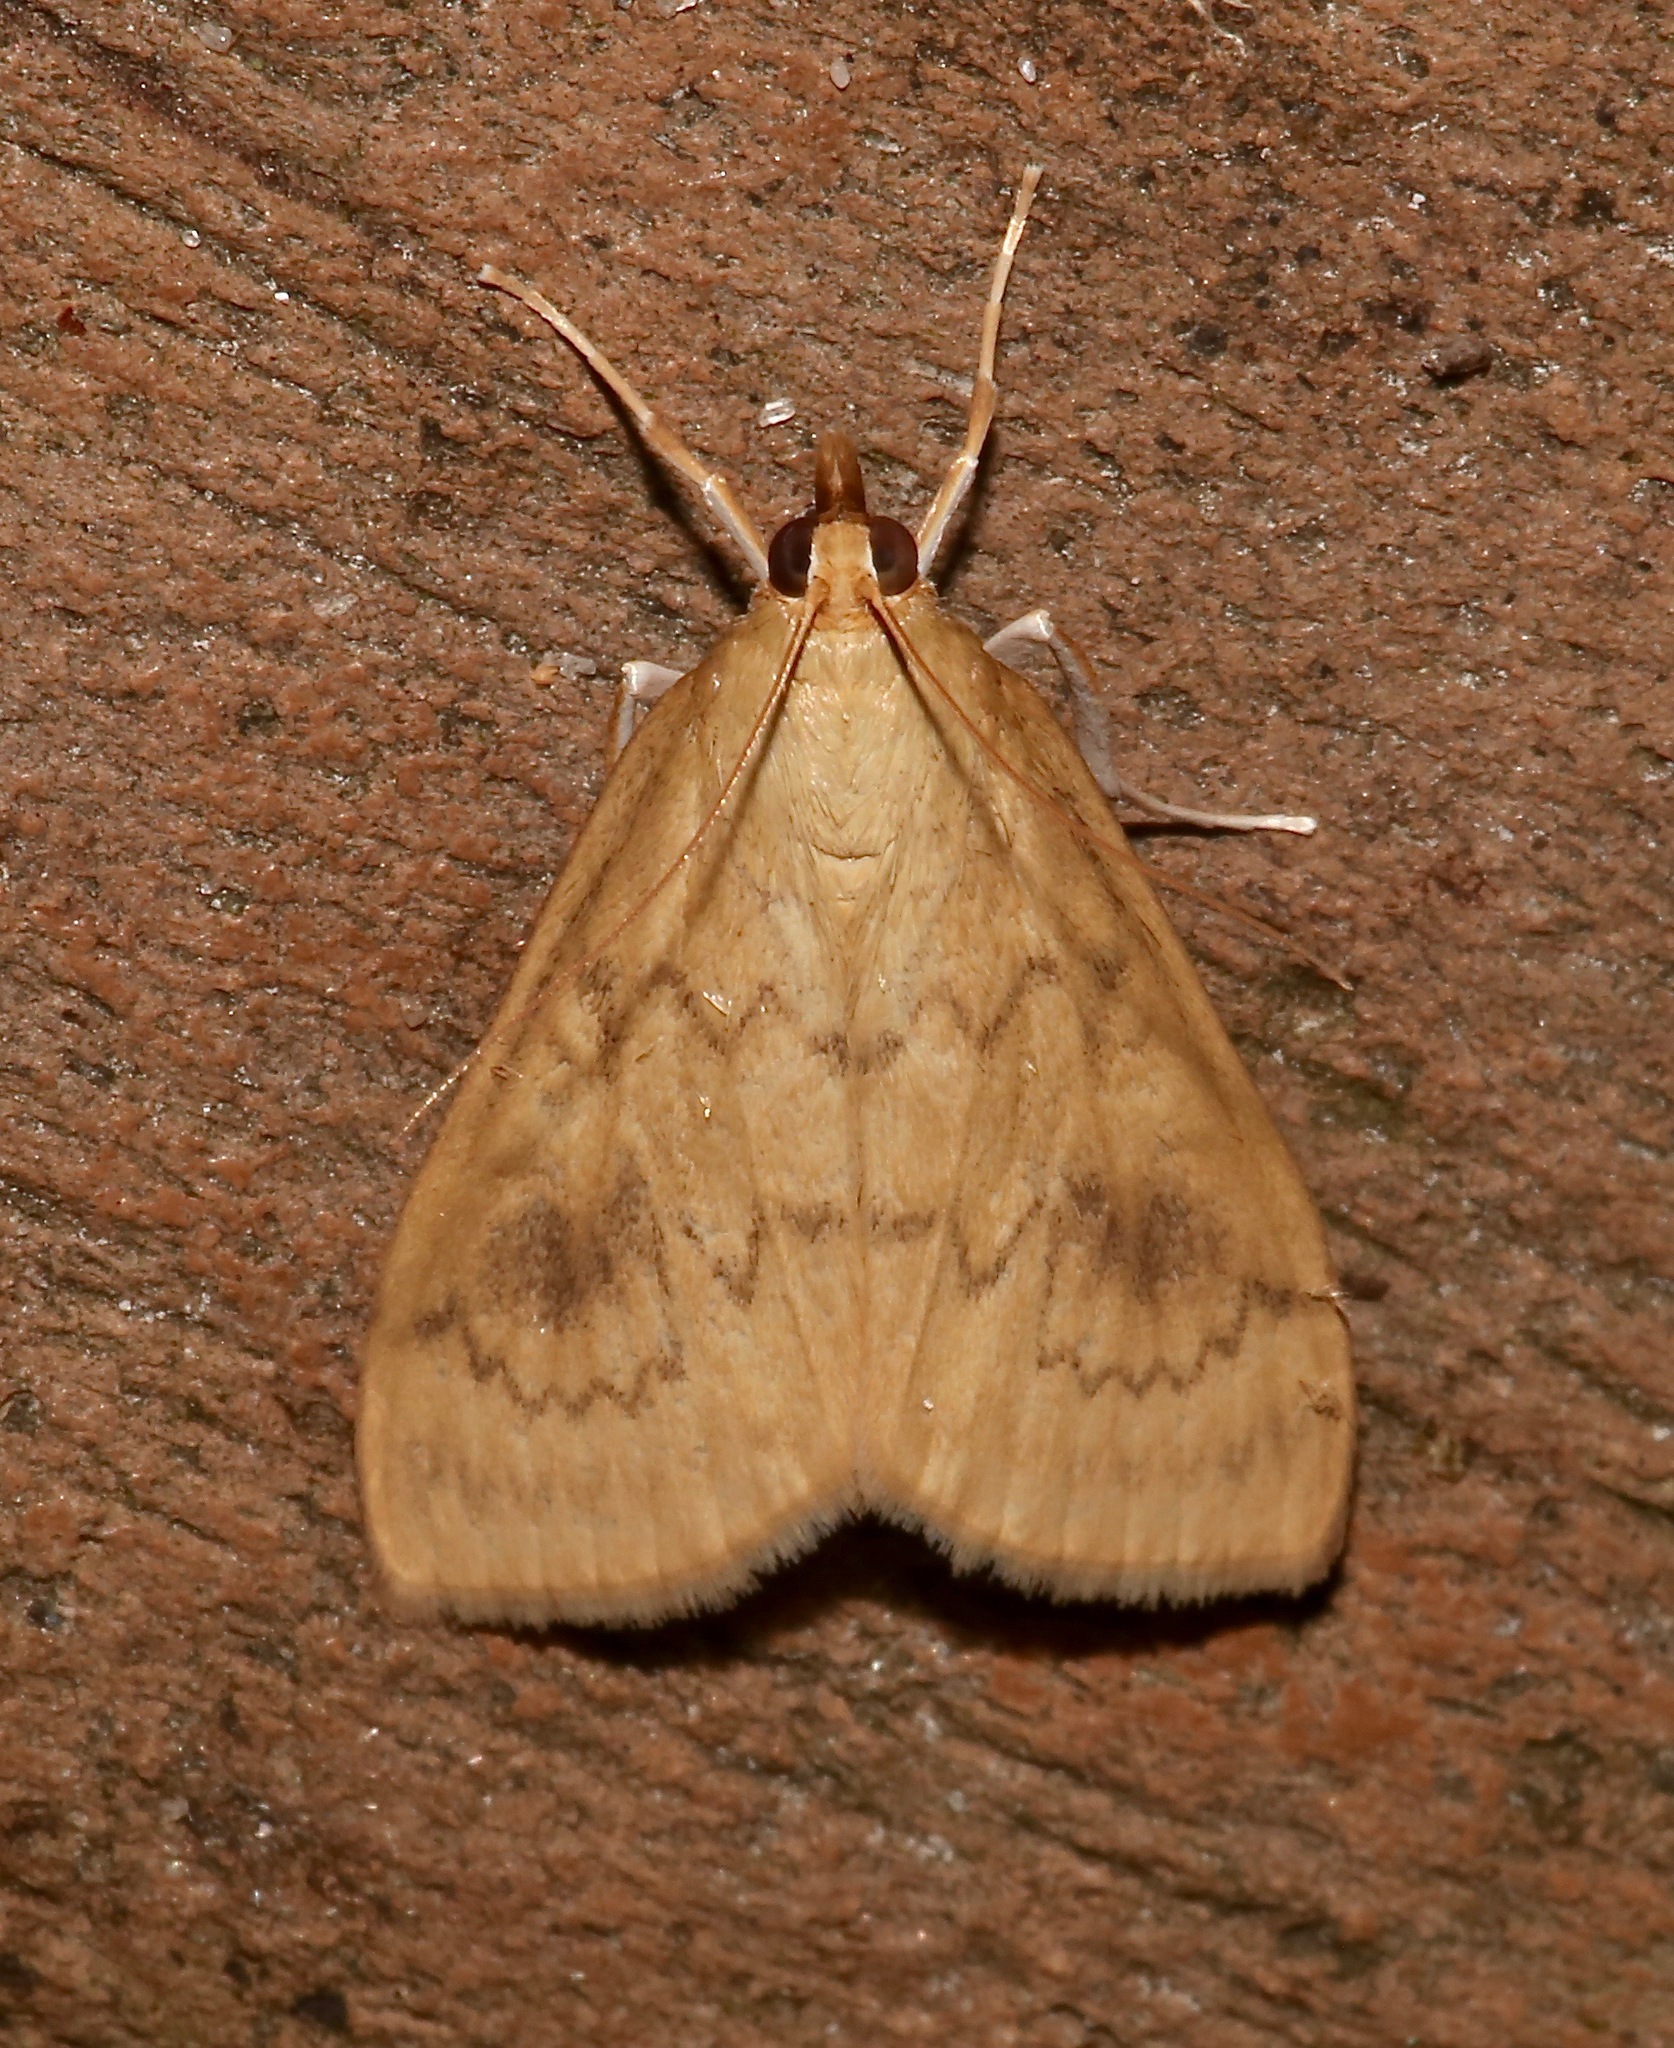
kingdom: Animalia
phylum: Arthropoda
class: Insecta
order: Lepidoptera
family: Crambidae
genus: Ostrinia
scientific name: Ostrinia penitalis
